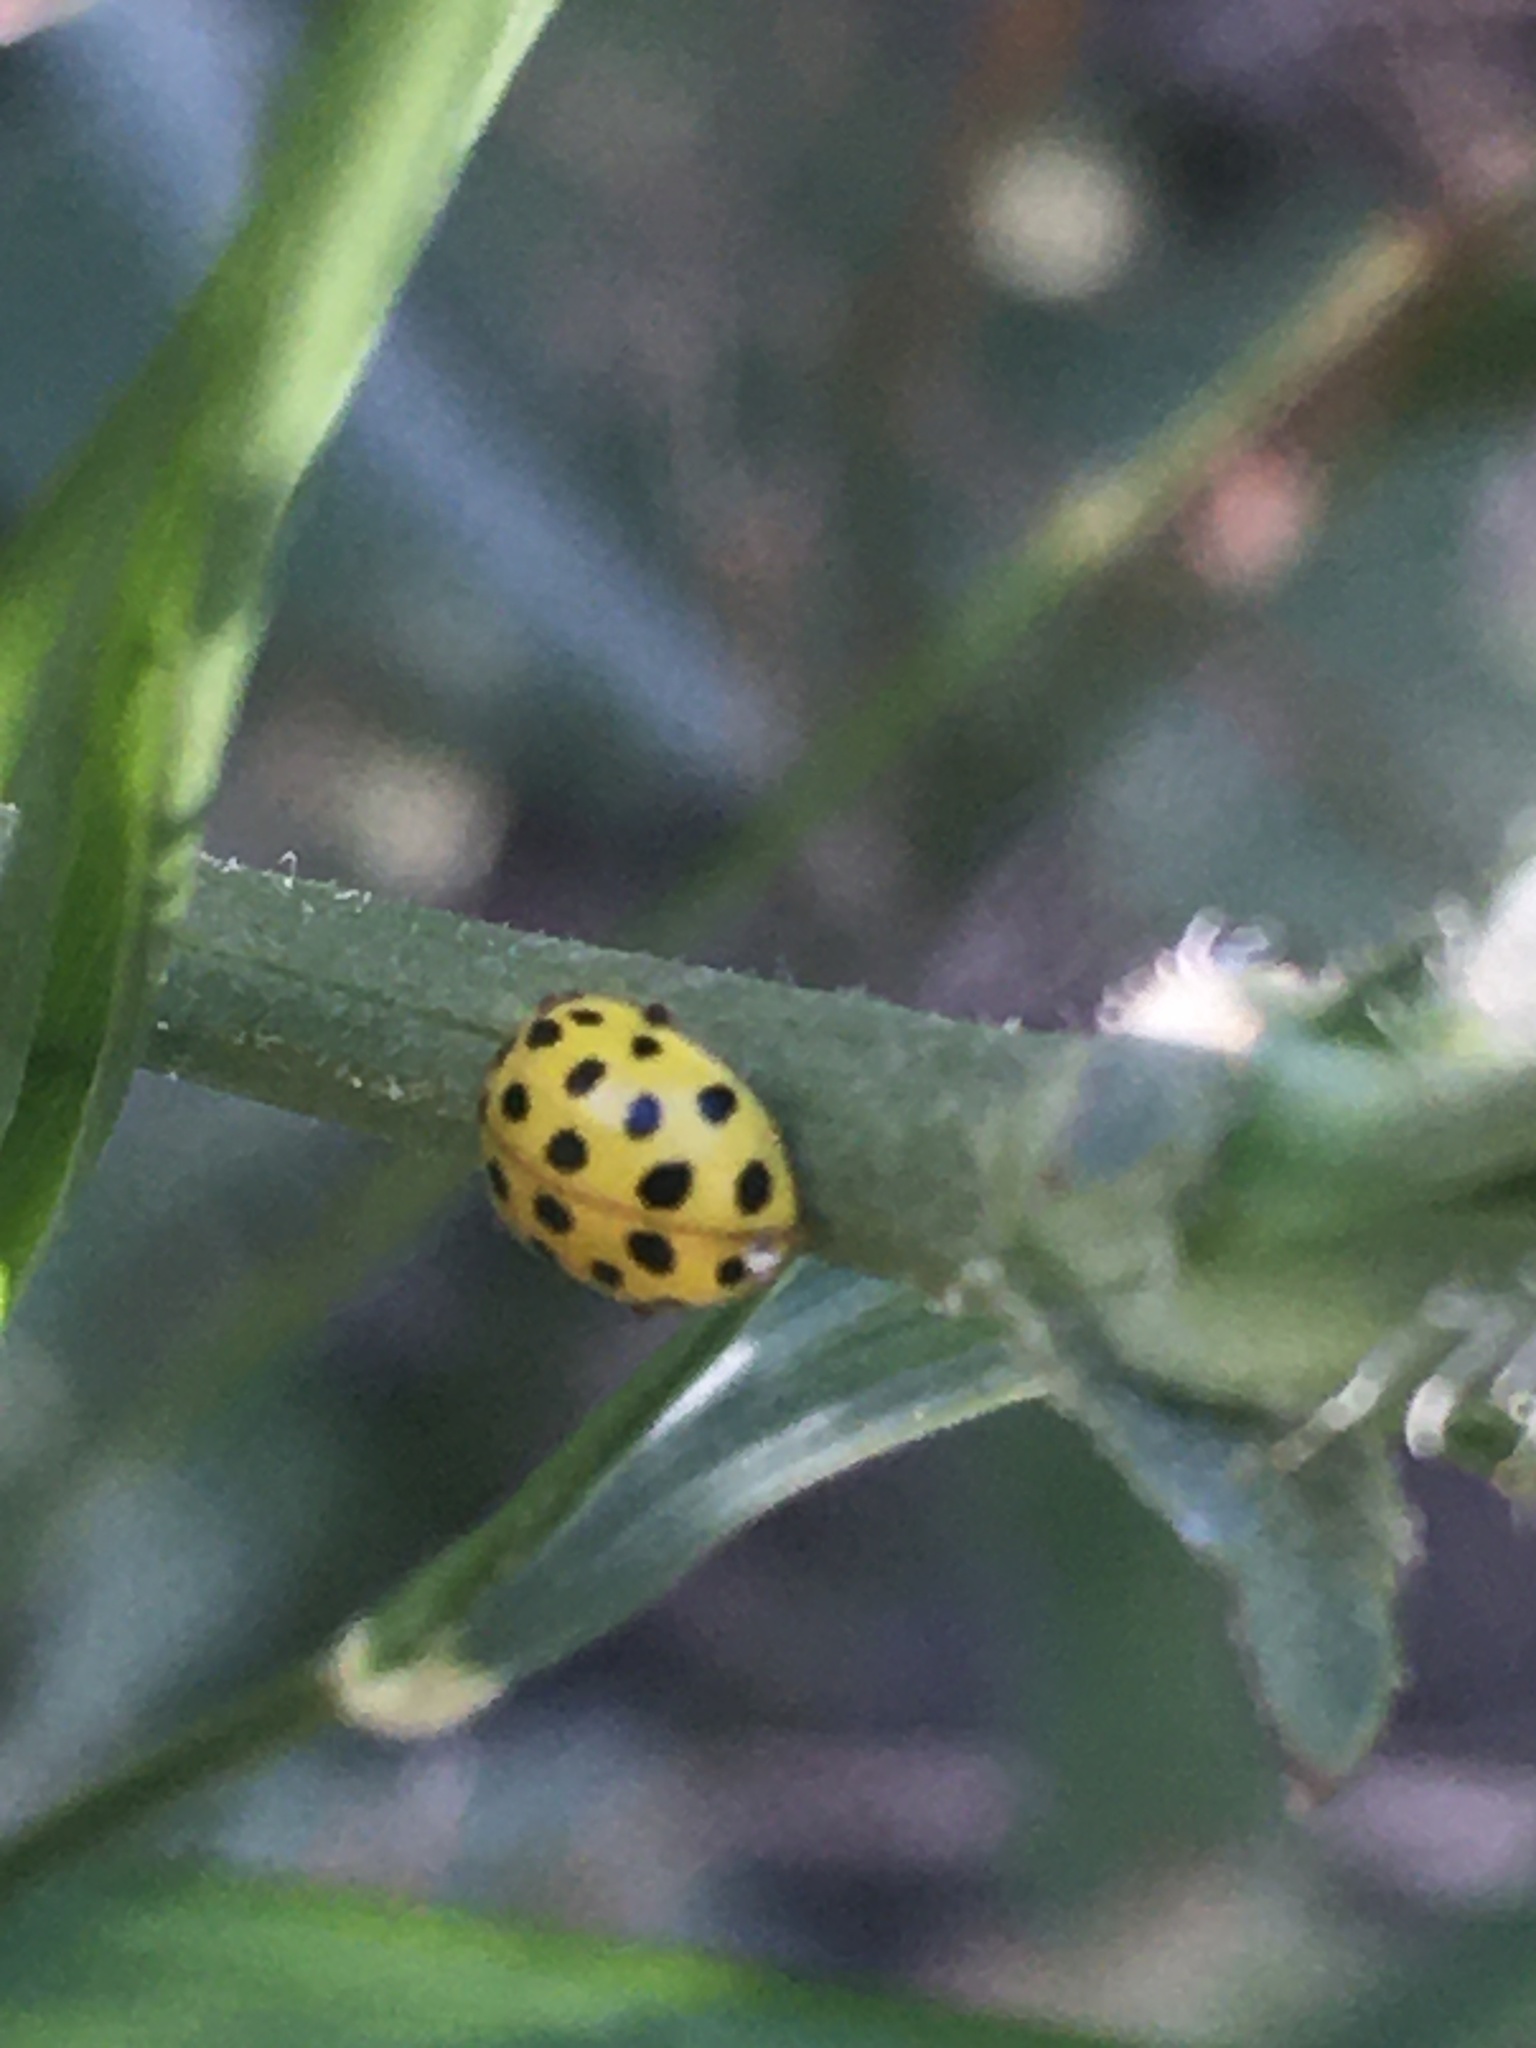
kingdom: Animalia
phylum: Arthropoda
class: Insecta
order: Coleoptera
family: Coccinellidae
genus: Psyllobora
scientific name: Psyllobora vigintiduopunctata
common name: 22-spot ladybird
